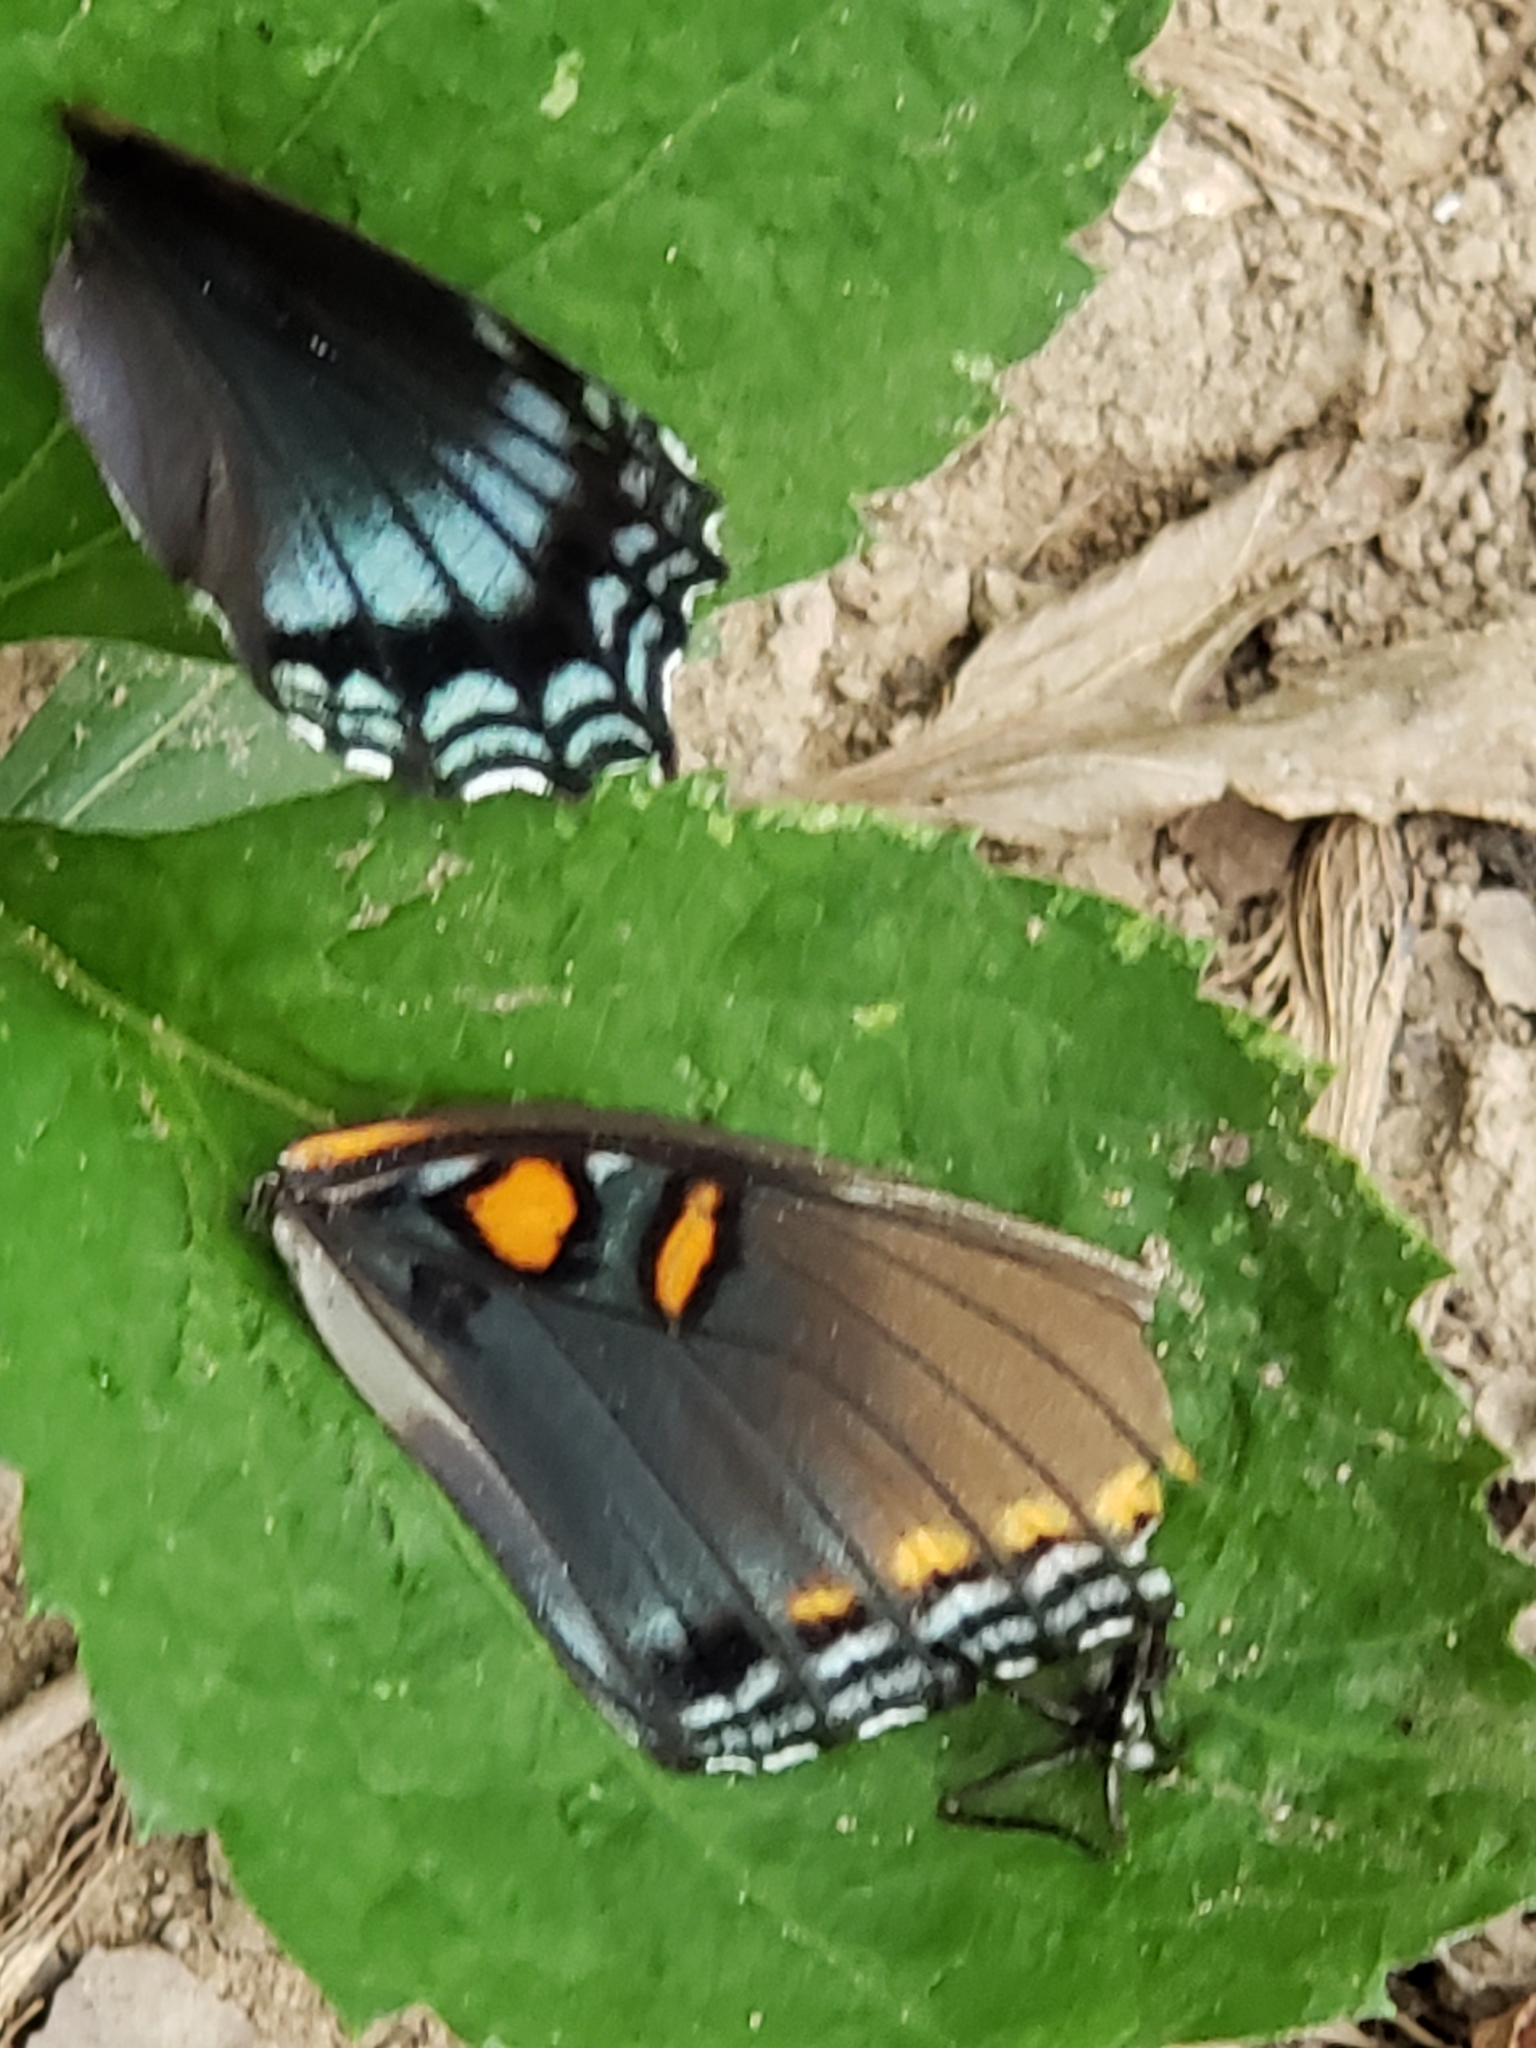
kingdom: Animalia
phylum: Arthropoda
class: Insecta
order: Lepidoptera
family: Nymphalidae
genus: Limenitis
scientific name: Limenitis arthemis
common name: Red-spotted admiral
